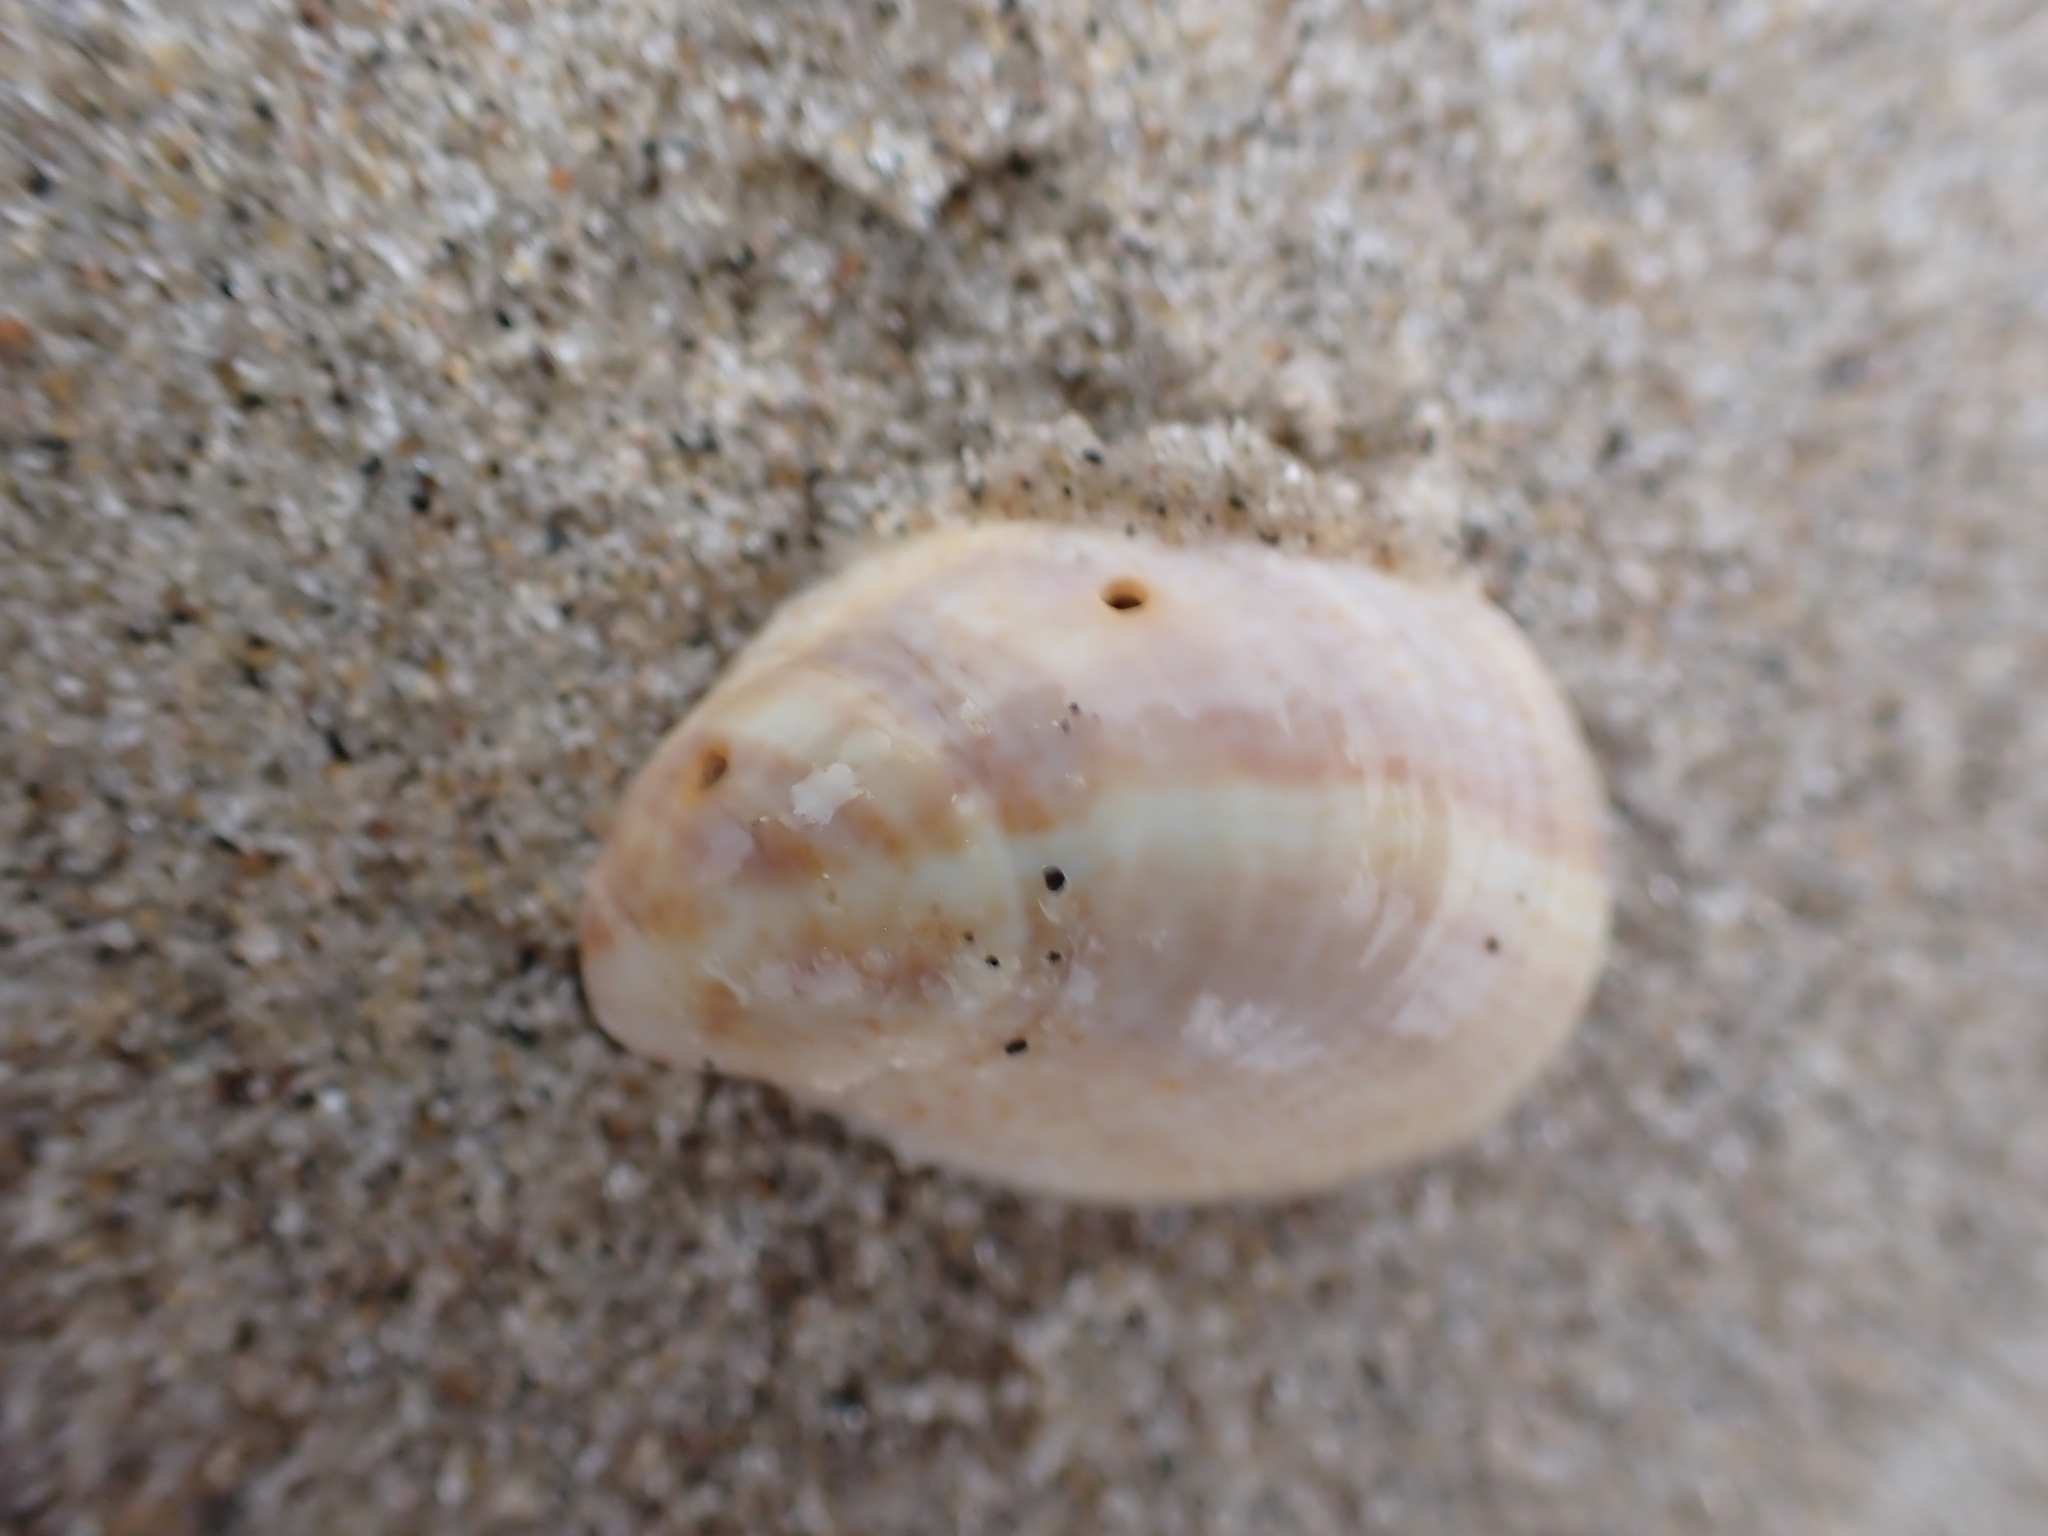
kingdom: Animalia
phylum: Mollusca
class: Gastropoda
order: Littorinimorpha
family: Calyptraeidae
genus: Crepidula
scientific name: Crepidula fornicata
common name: Slipper limpet
